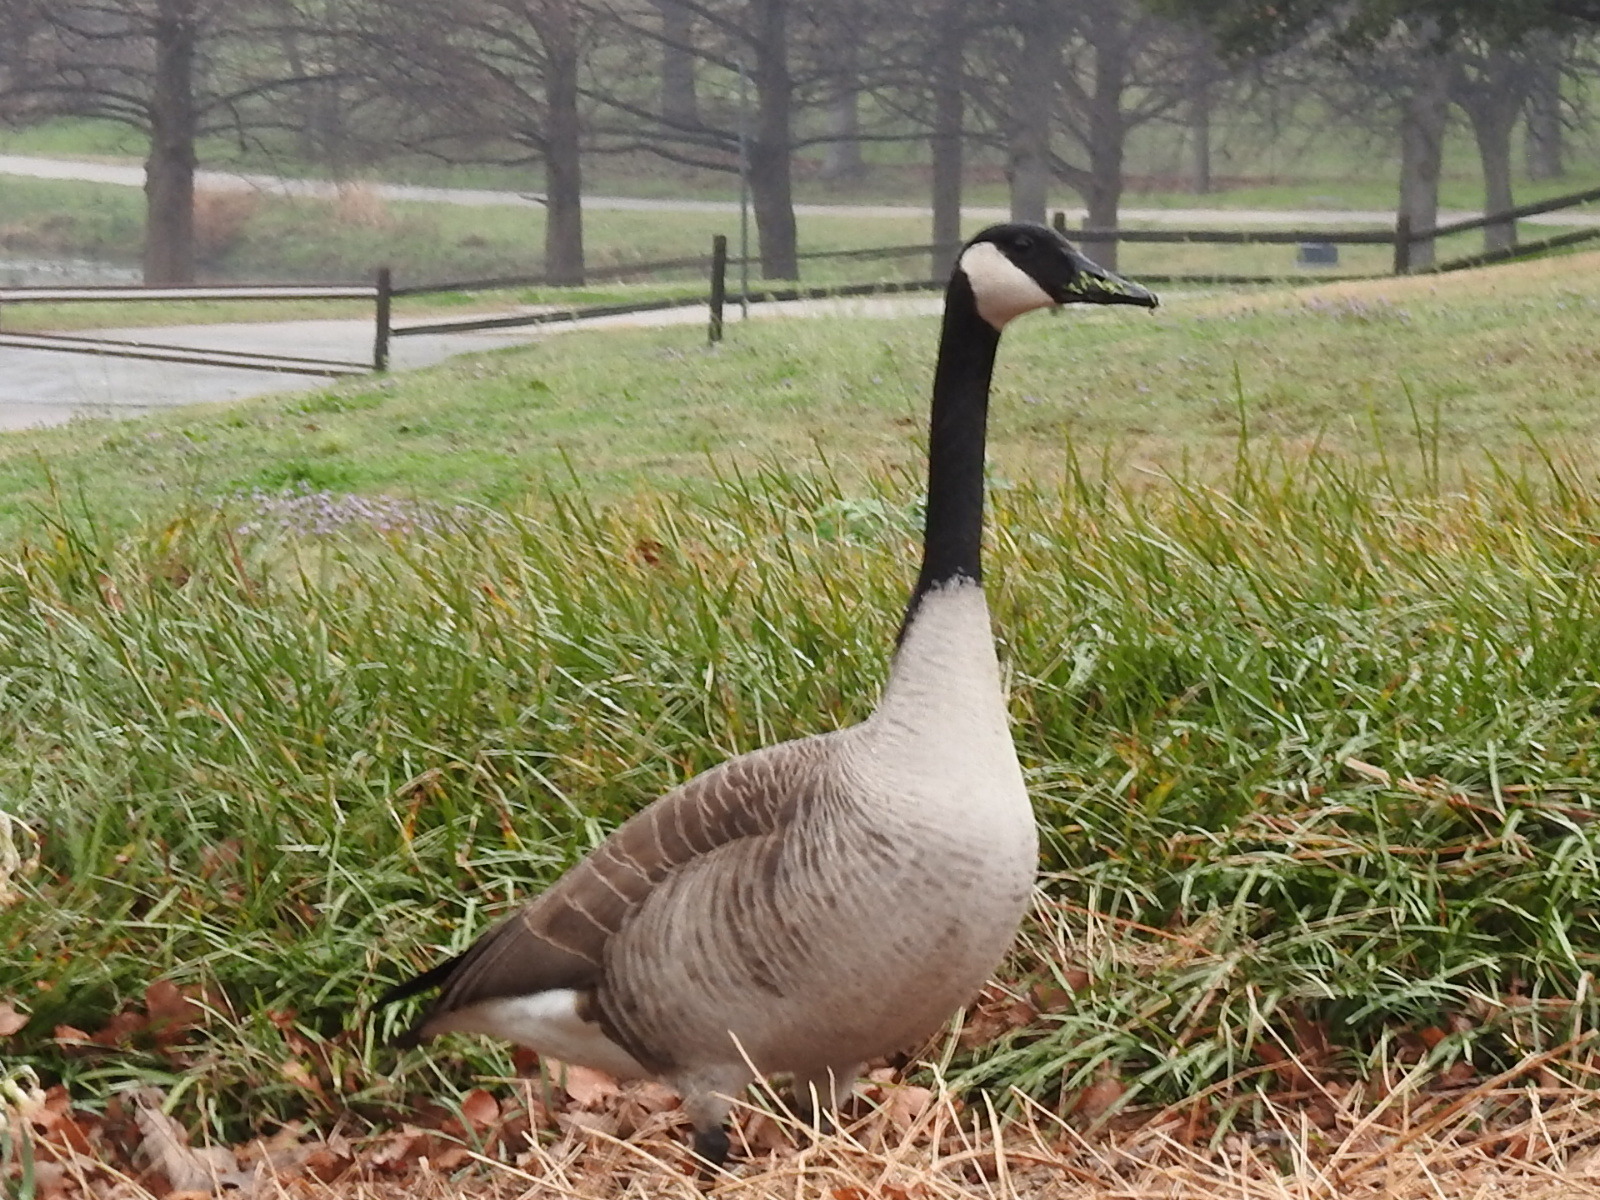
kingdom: Animalia
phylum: Chordata
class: Aves
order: Anseriformes
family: Anatidae
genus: Branta
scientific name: Branta canadensis
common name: Canada goose
